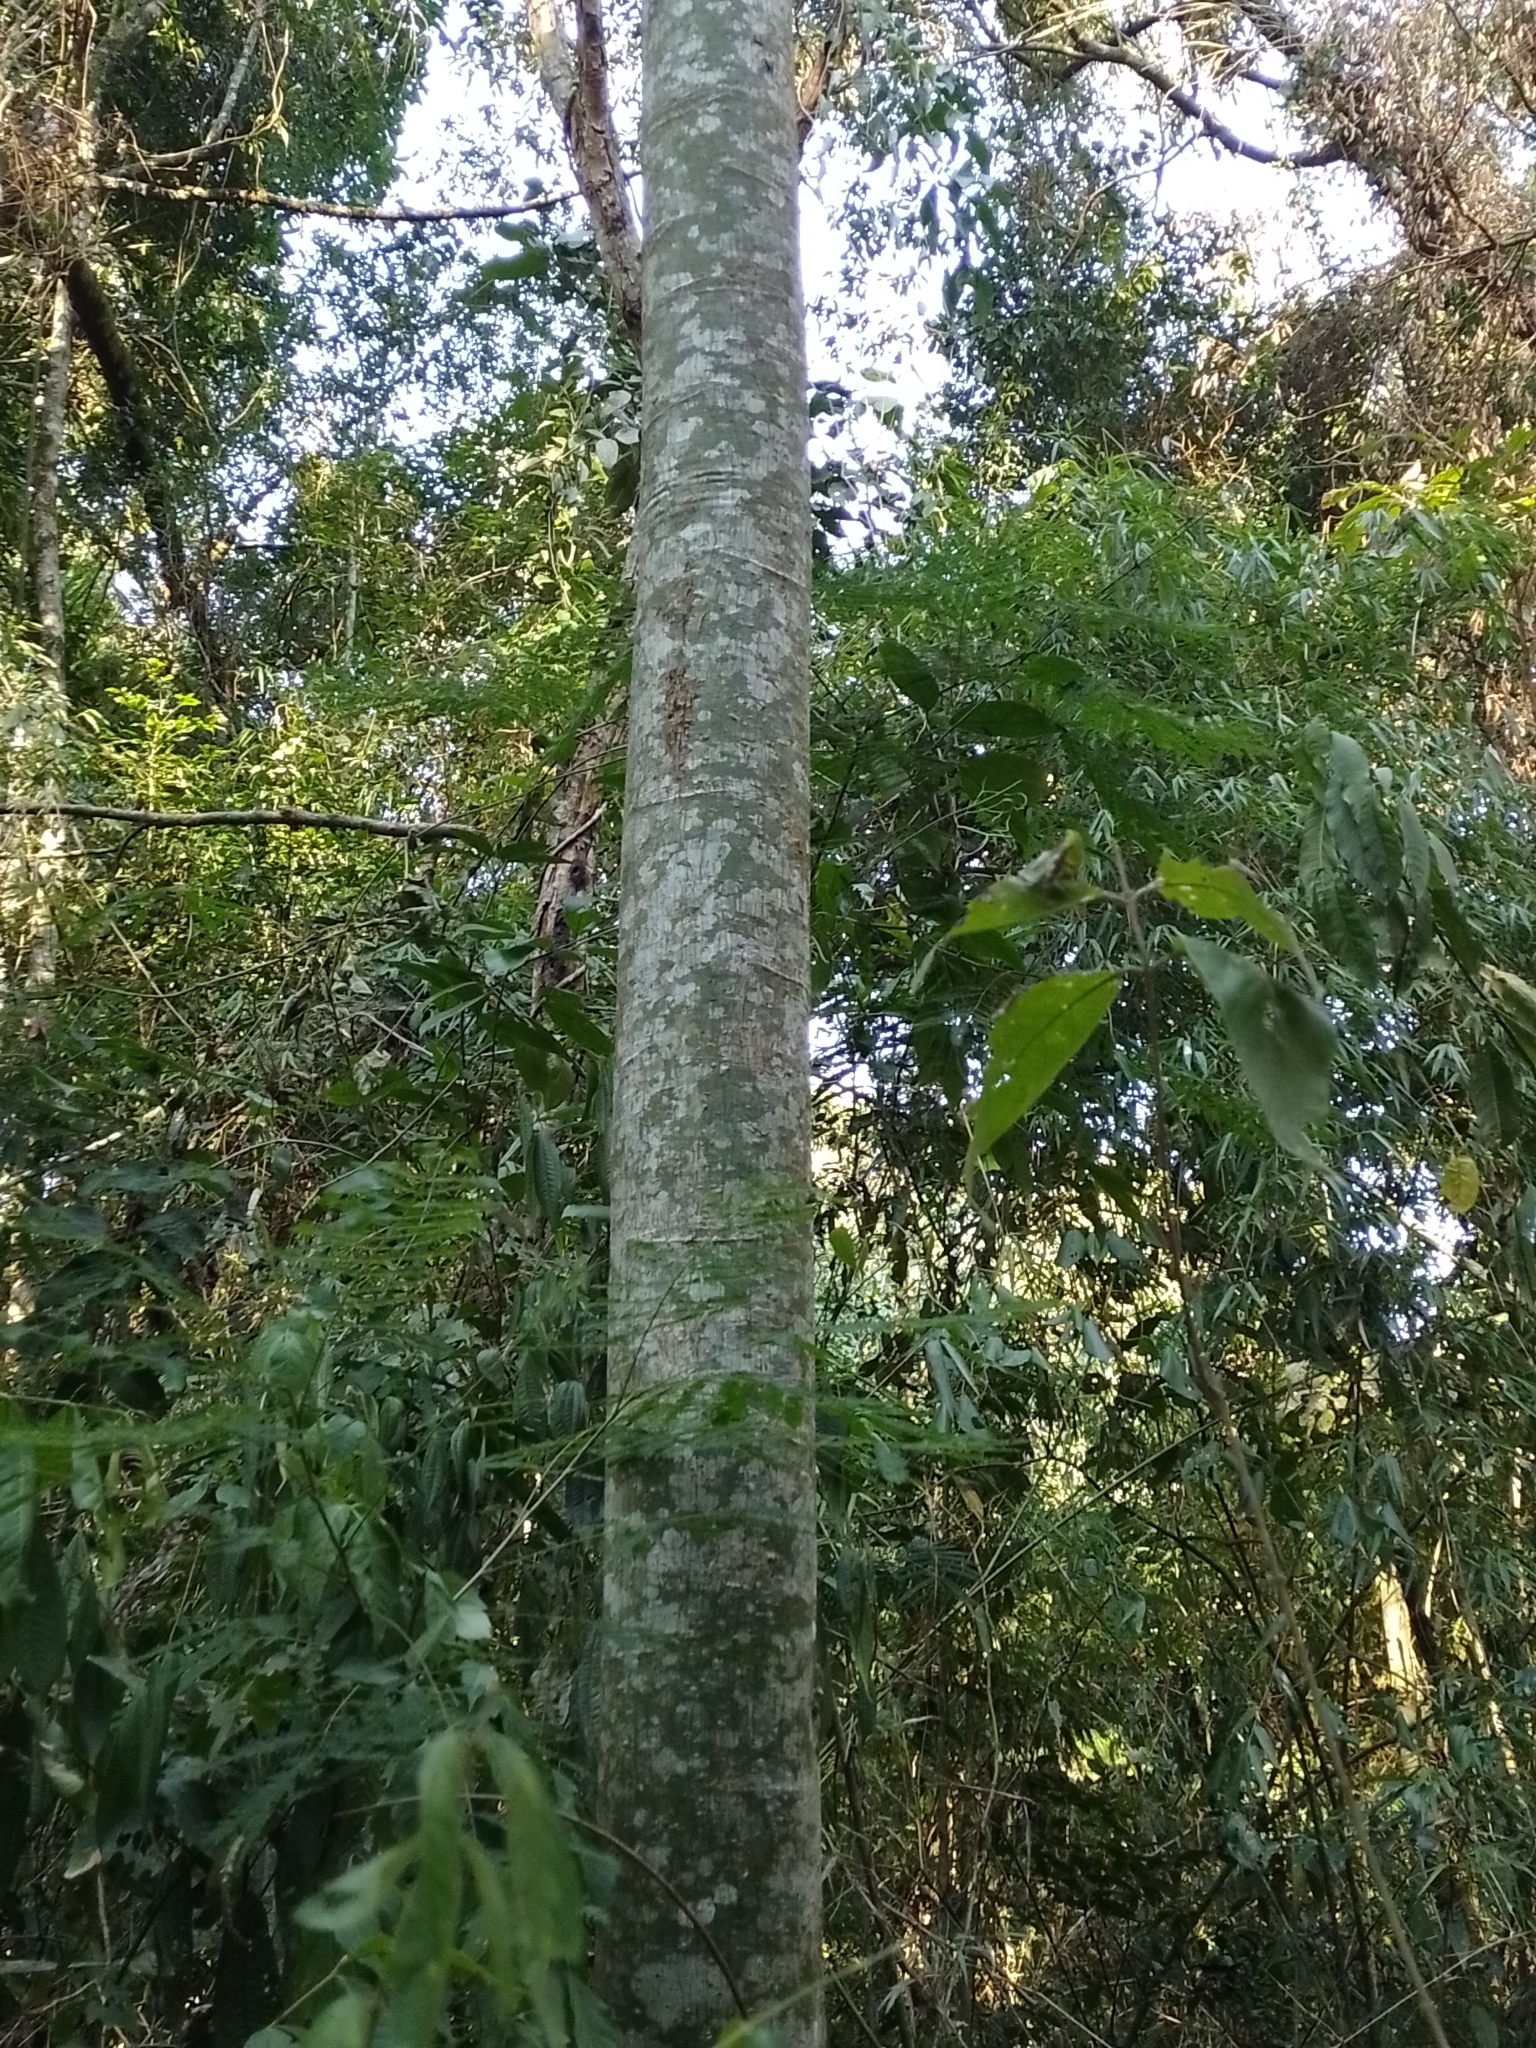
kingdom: Plantae
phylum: Tracheophyta
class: Magnoliopsida
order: Fabales
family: Fabaceae
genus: Schizolobium
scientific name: Schizolobium parahyba
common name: Brazilian firetree
